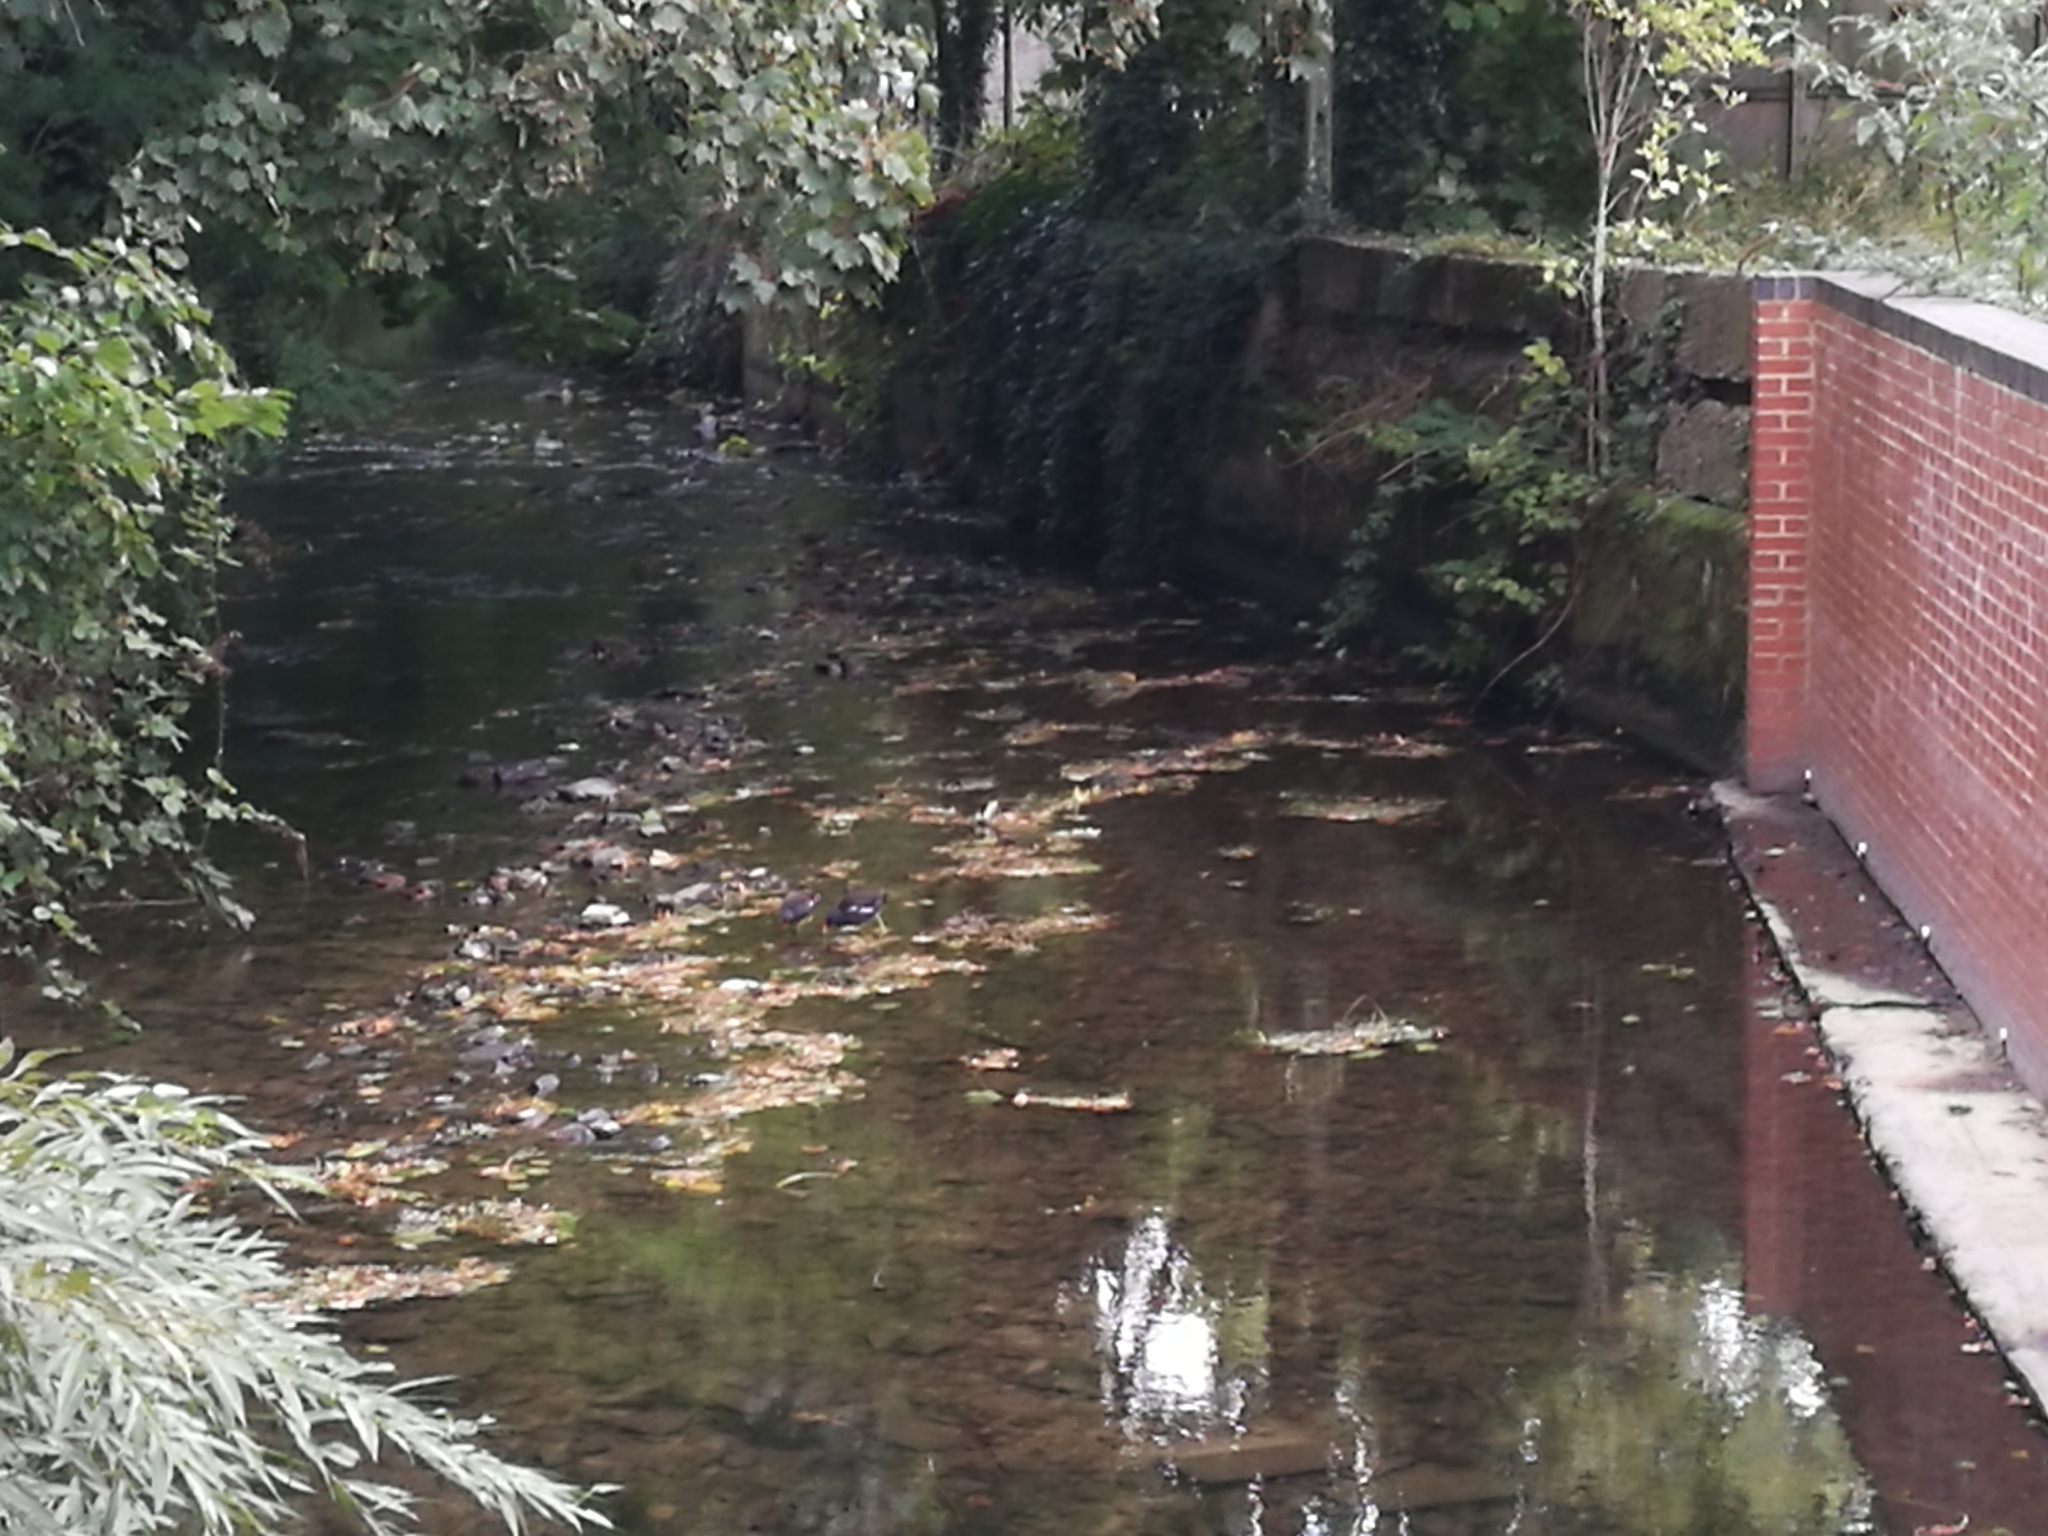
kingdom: Animalia
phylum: Chordata
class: Aves
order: Gruiformes
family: Rallidae
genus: Gallinula
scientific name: Gallinula chloropus
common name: Common moorhen
